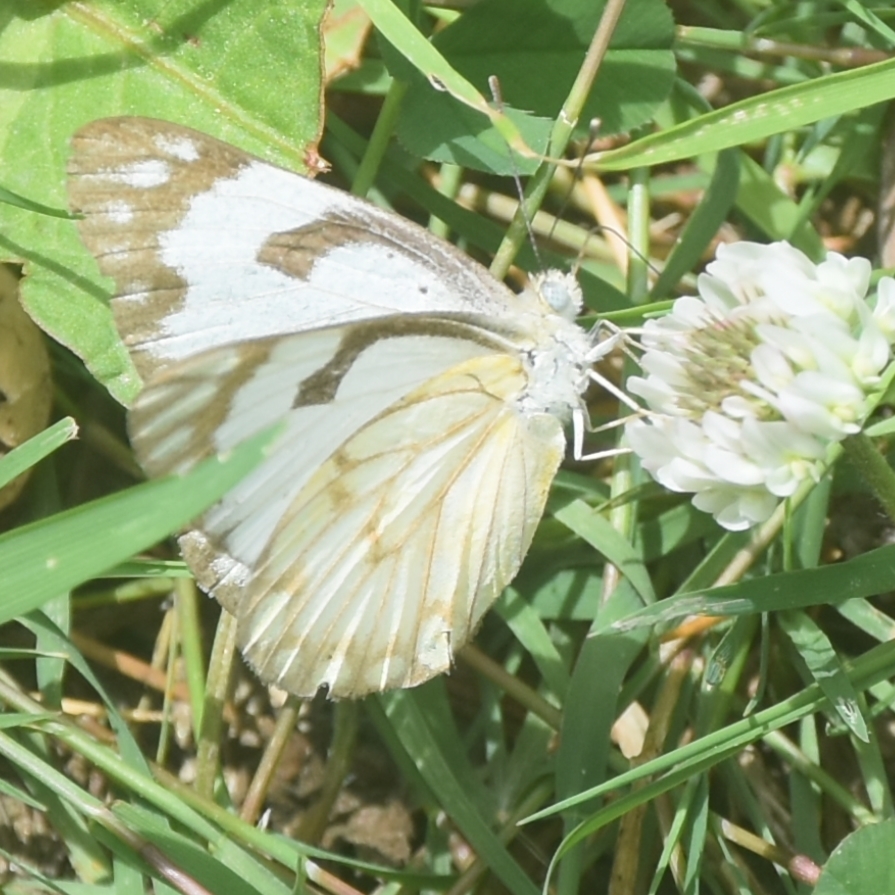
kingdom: Animalia
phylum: Arthropoda
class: Insecta
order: Lepidoptera
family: Pieridae
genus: Belenois
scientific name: Belenois aurota
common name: Brown-veined white
